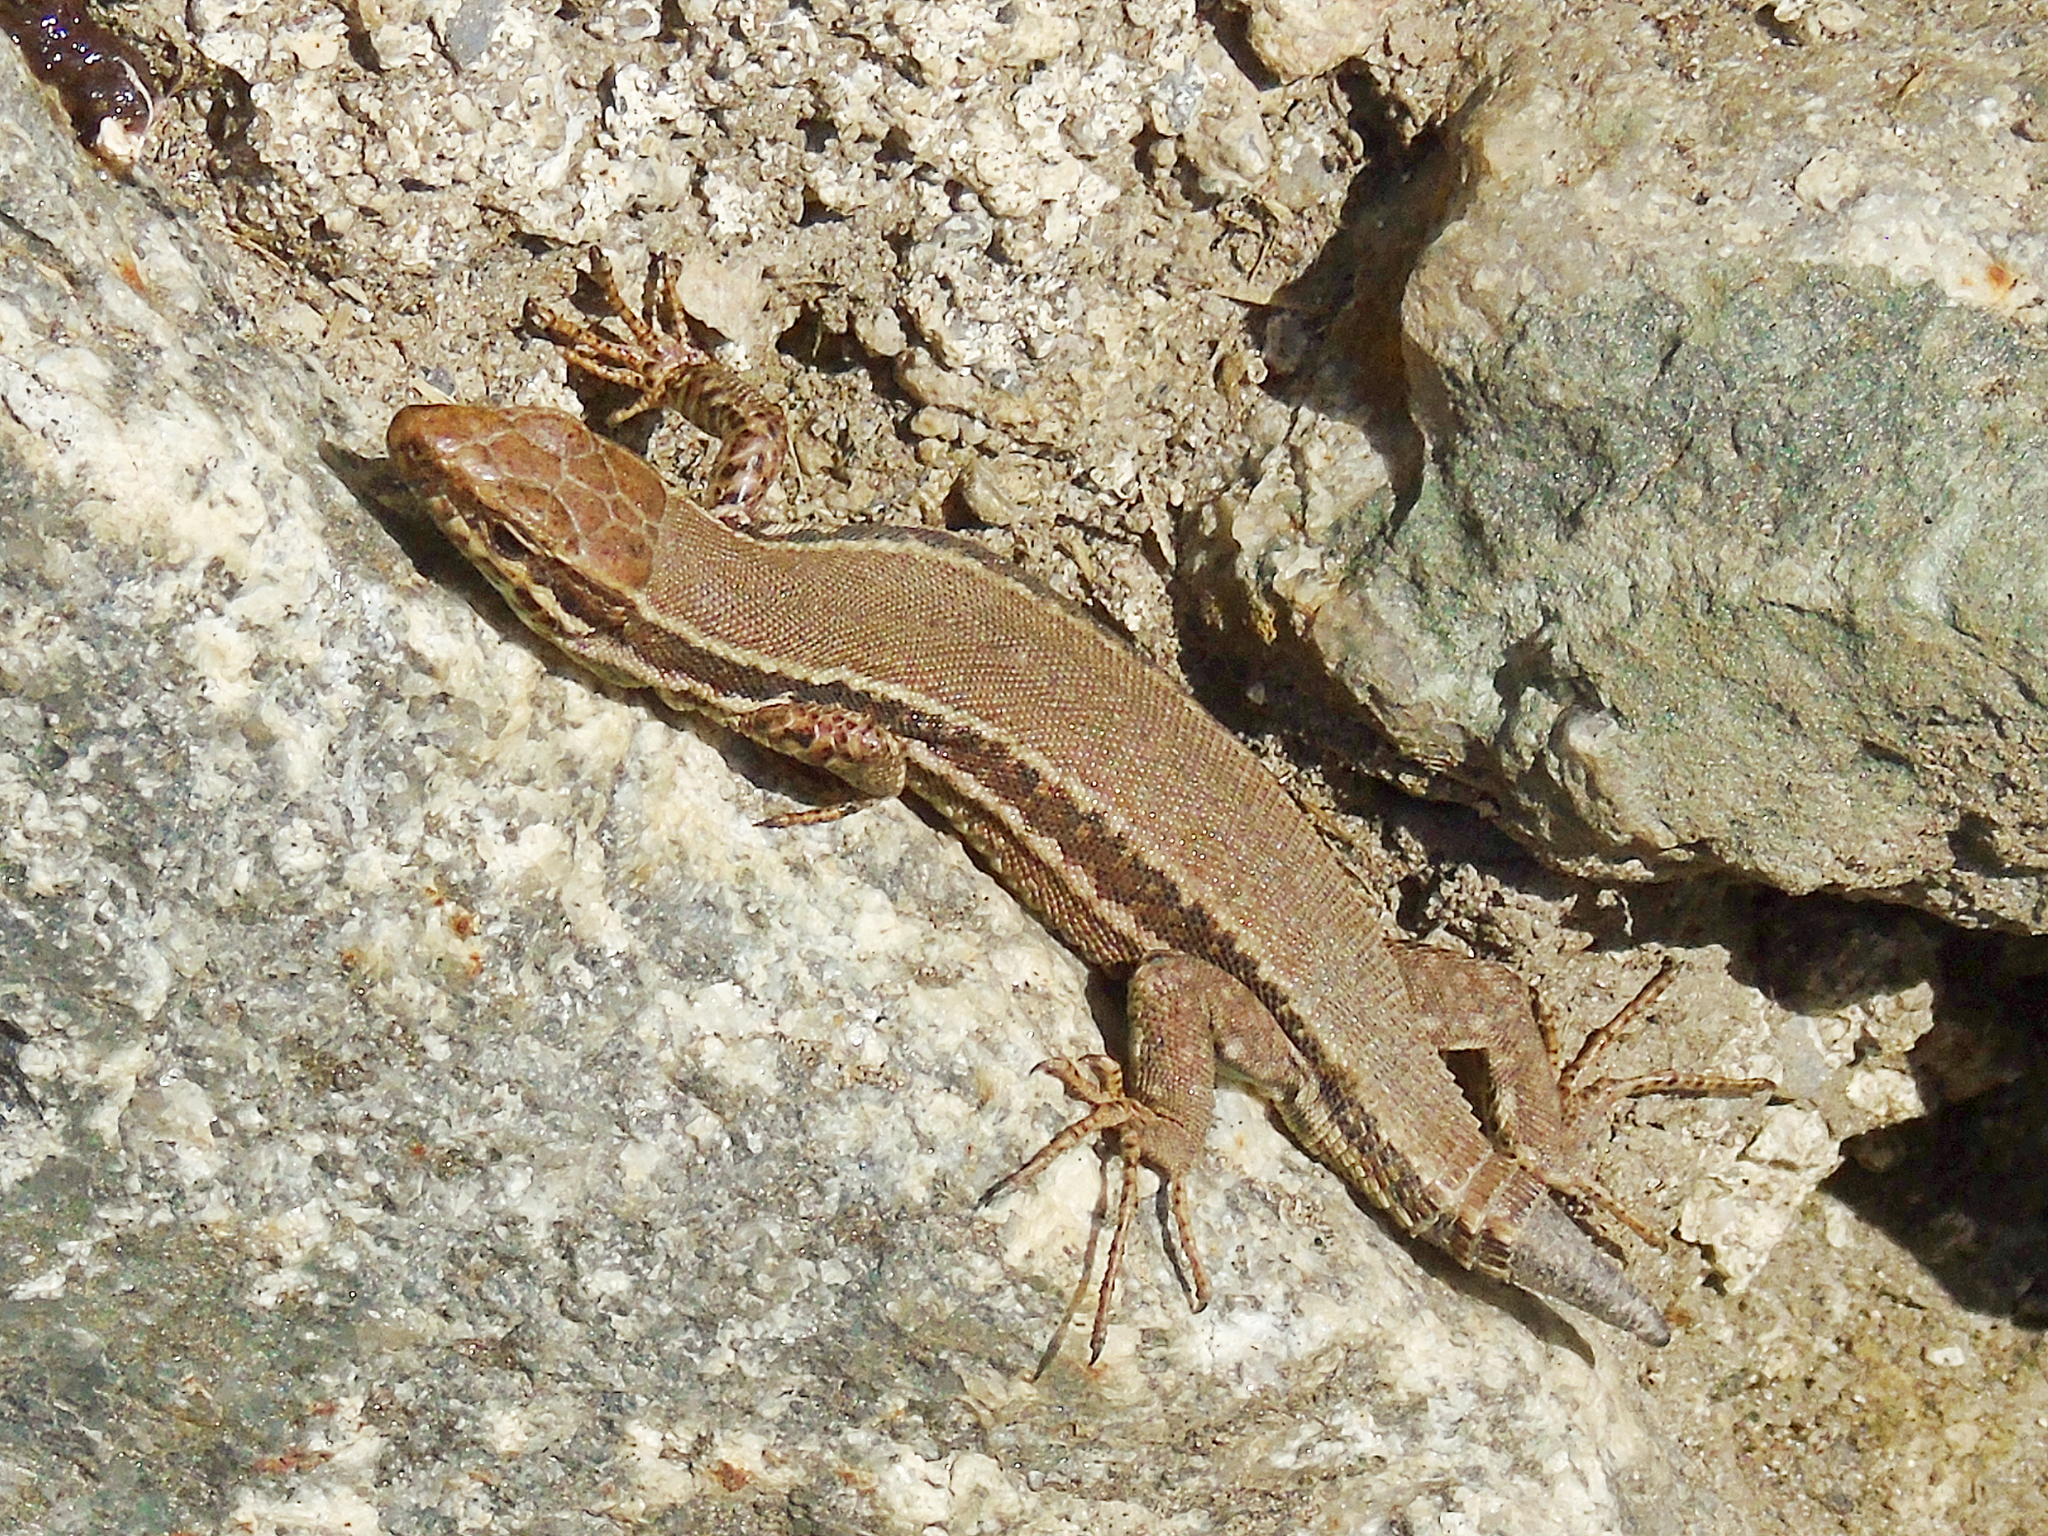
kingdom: Animalia
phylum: Chordata
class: Squamata
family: Lacertidae
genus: Podarcis
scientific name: Podarcis muralis
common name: Common wall lizard
